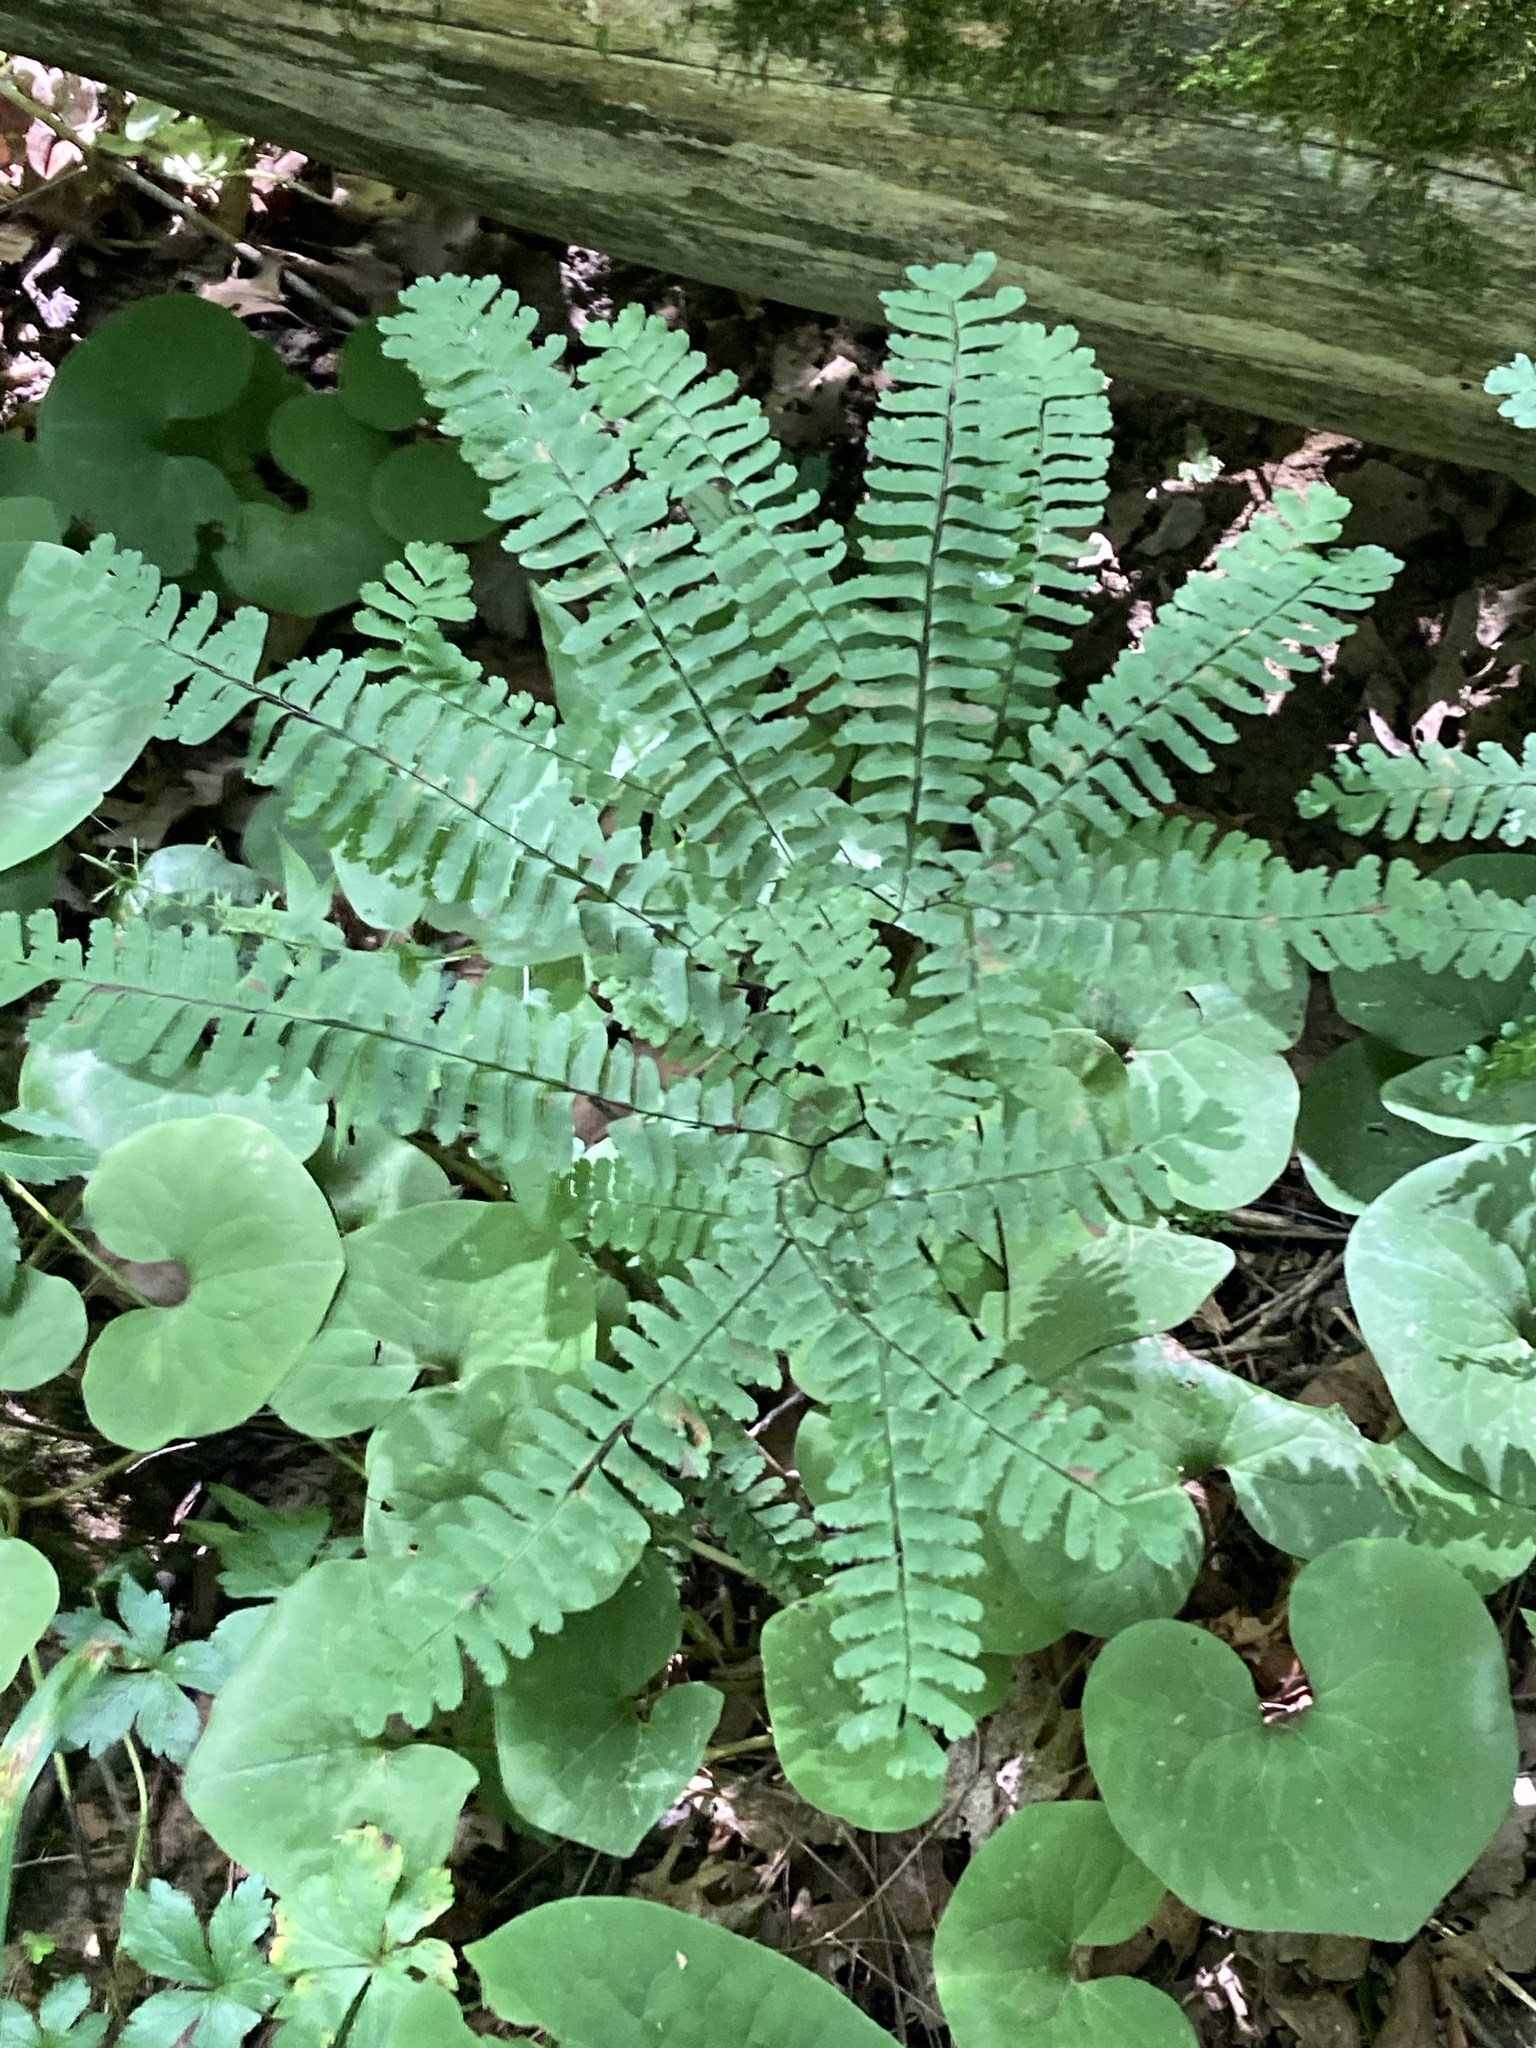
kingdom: Plantae
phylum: Tracheophyta
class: Polypodiopsida
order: Polypodiales
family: Pteridaceae
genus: Adiantum
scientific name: Adiantum pedatum
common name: Five-finger fern
